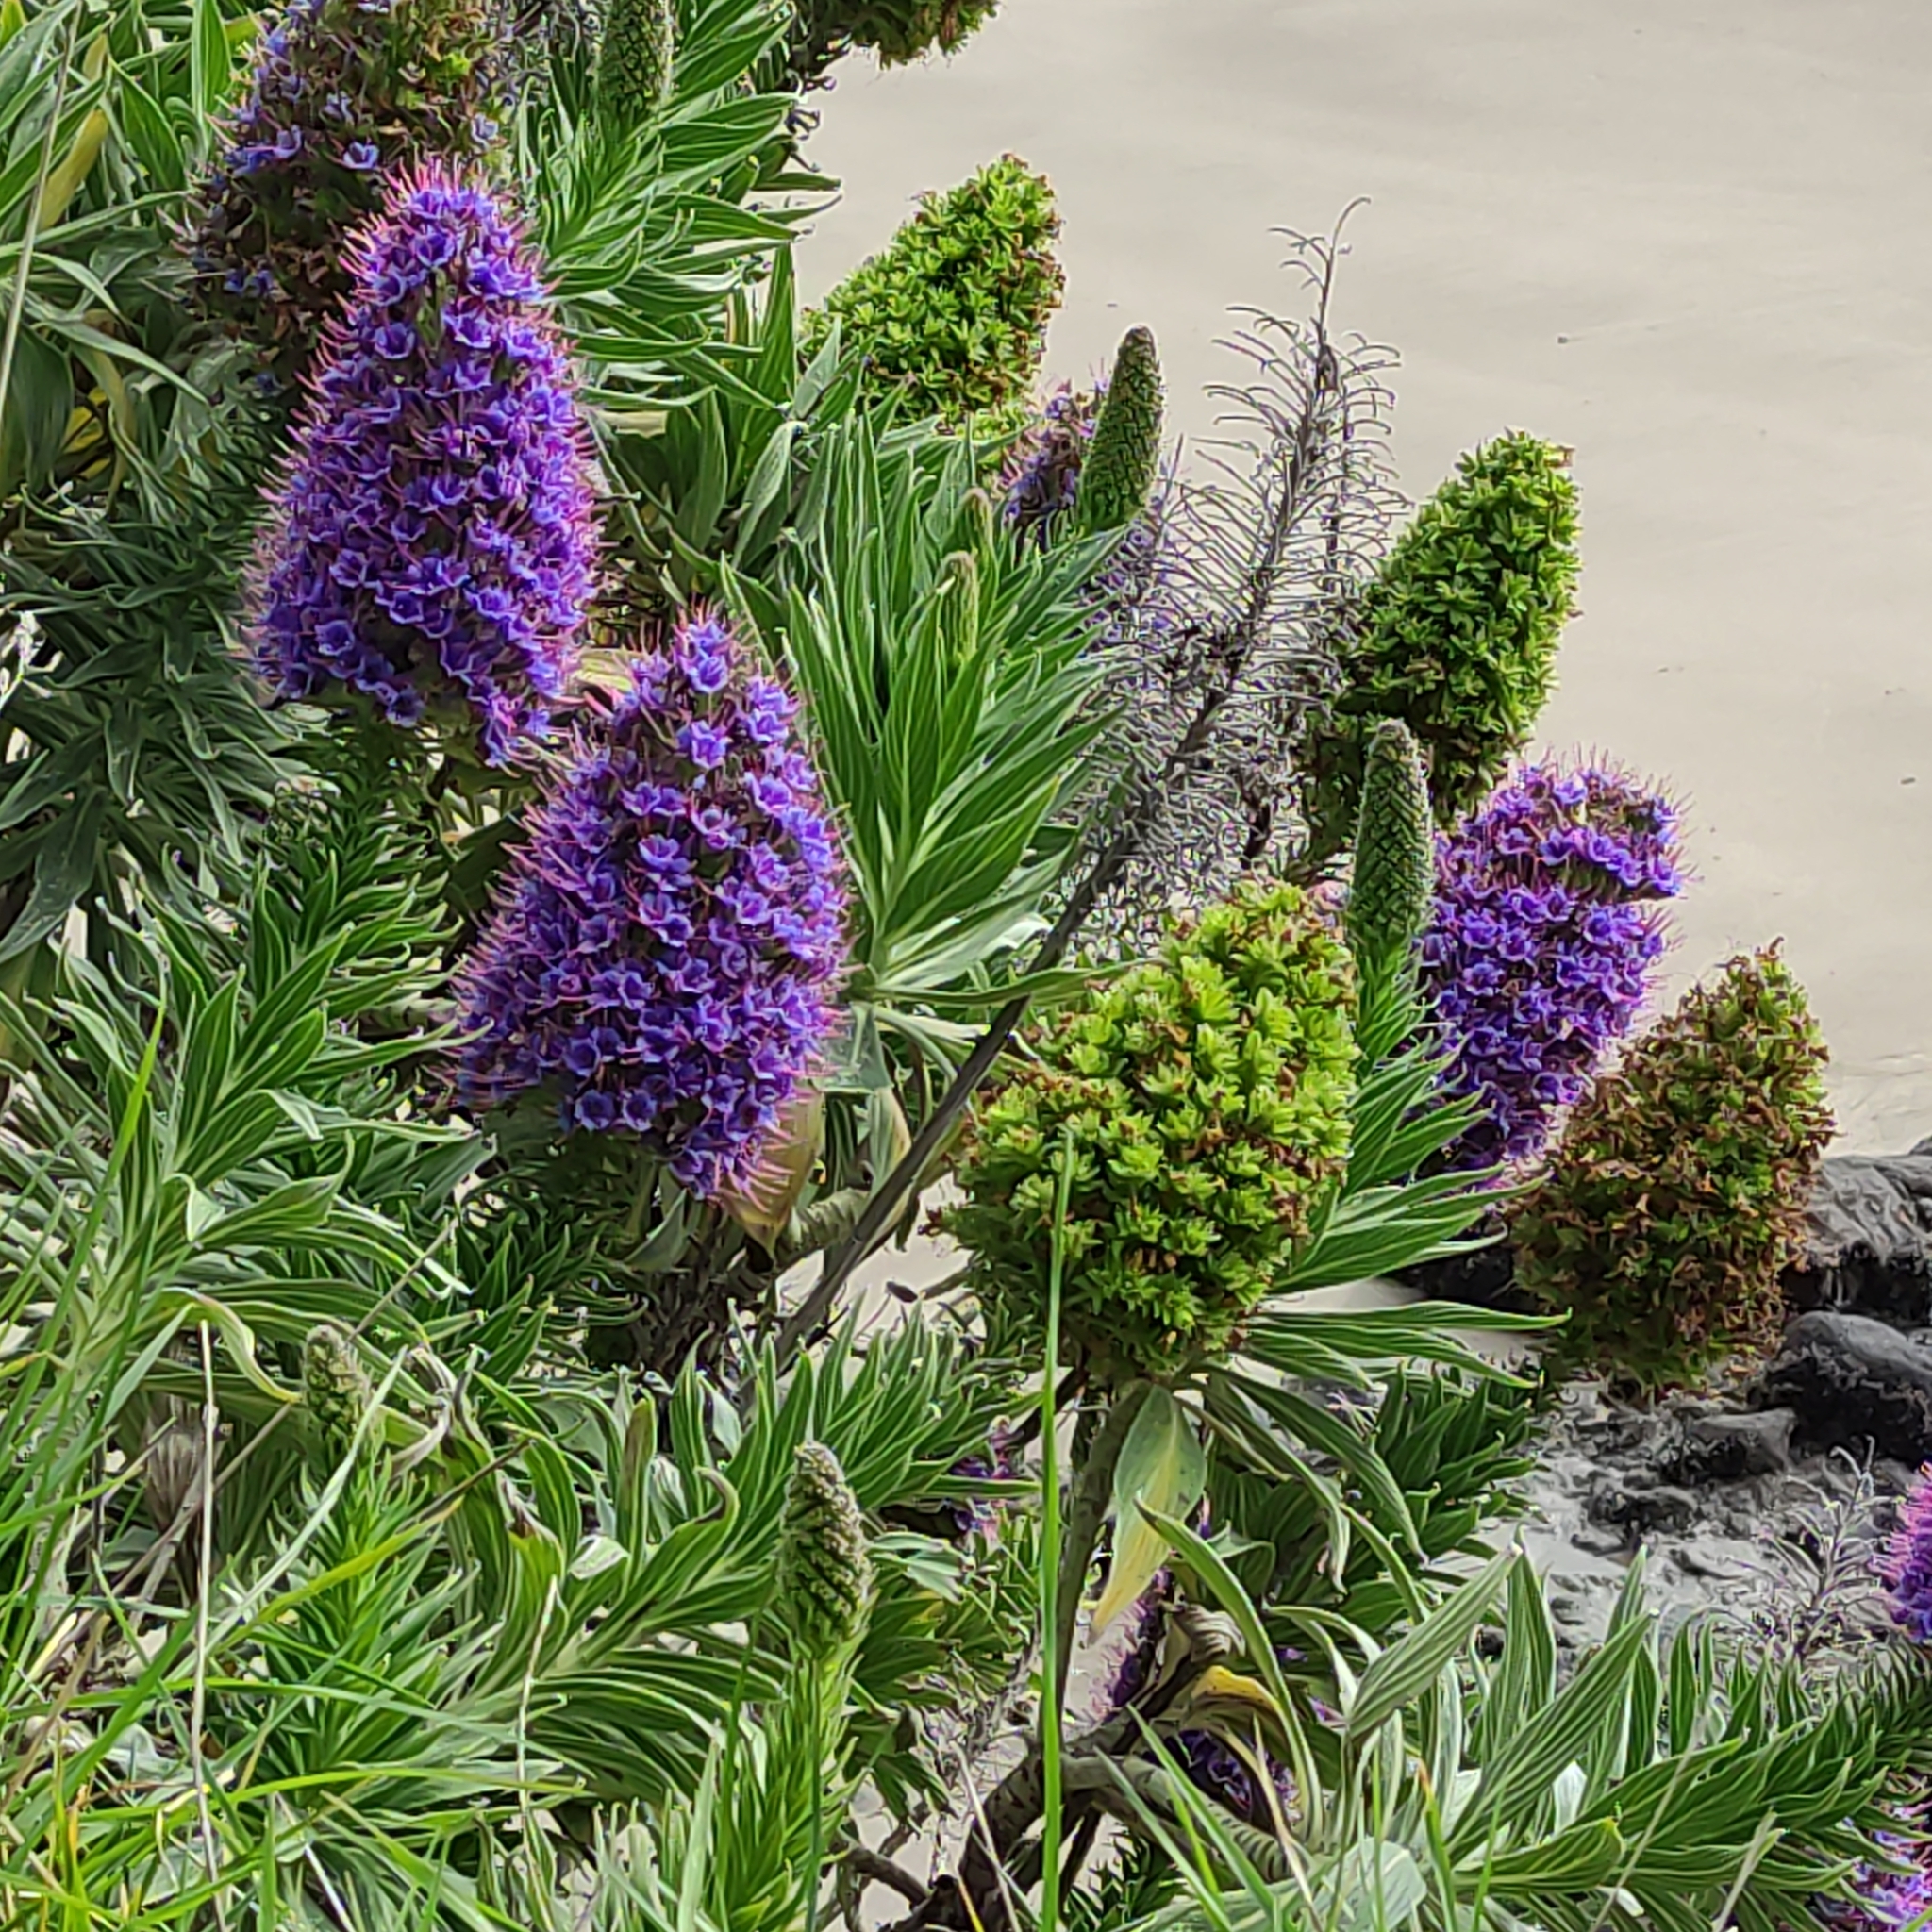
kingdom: Plantae
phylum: Tracheophyta
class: Magnoliopsida
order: Boraginales
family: Boraginaceae
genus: Echium
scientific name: Echium candicans
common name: Pride of madeira
